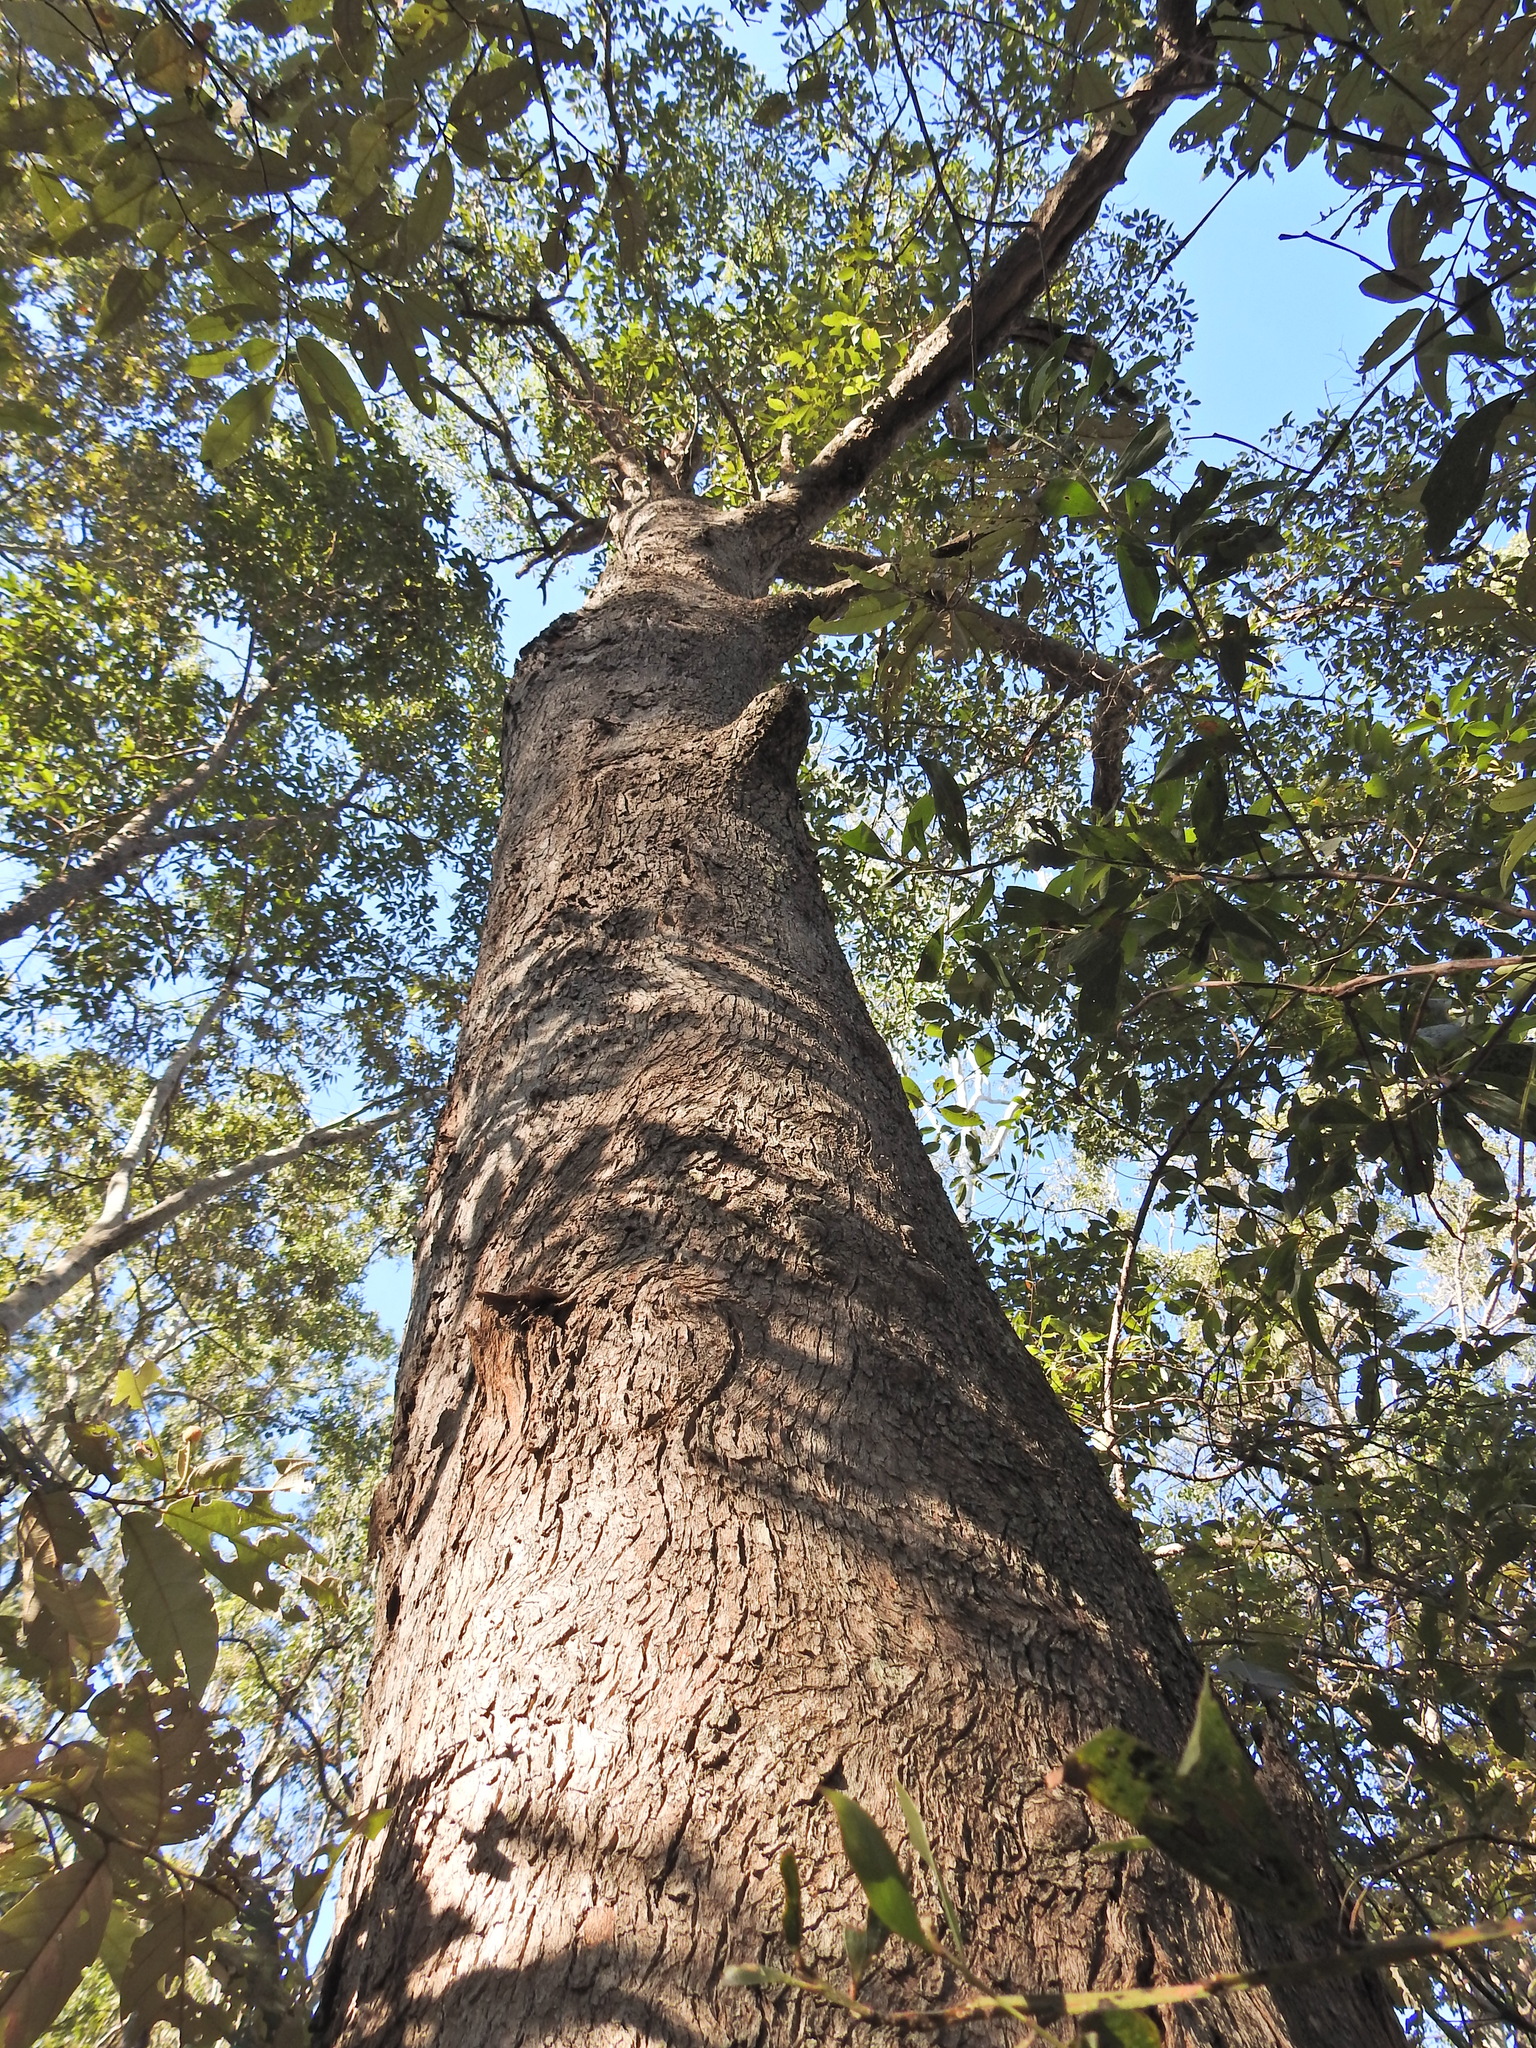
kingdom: Plantae
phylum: Tracheophyta
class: Magnoliopsida
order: Myrtales
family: Myrtaceae
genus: Lophostemon
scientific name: Lophostemon confertus
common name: Brisbane box
